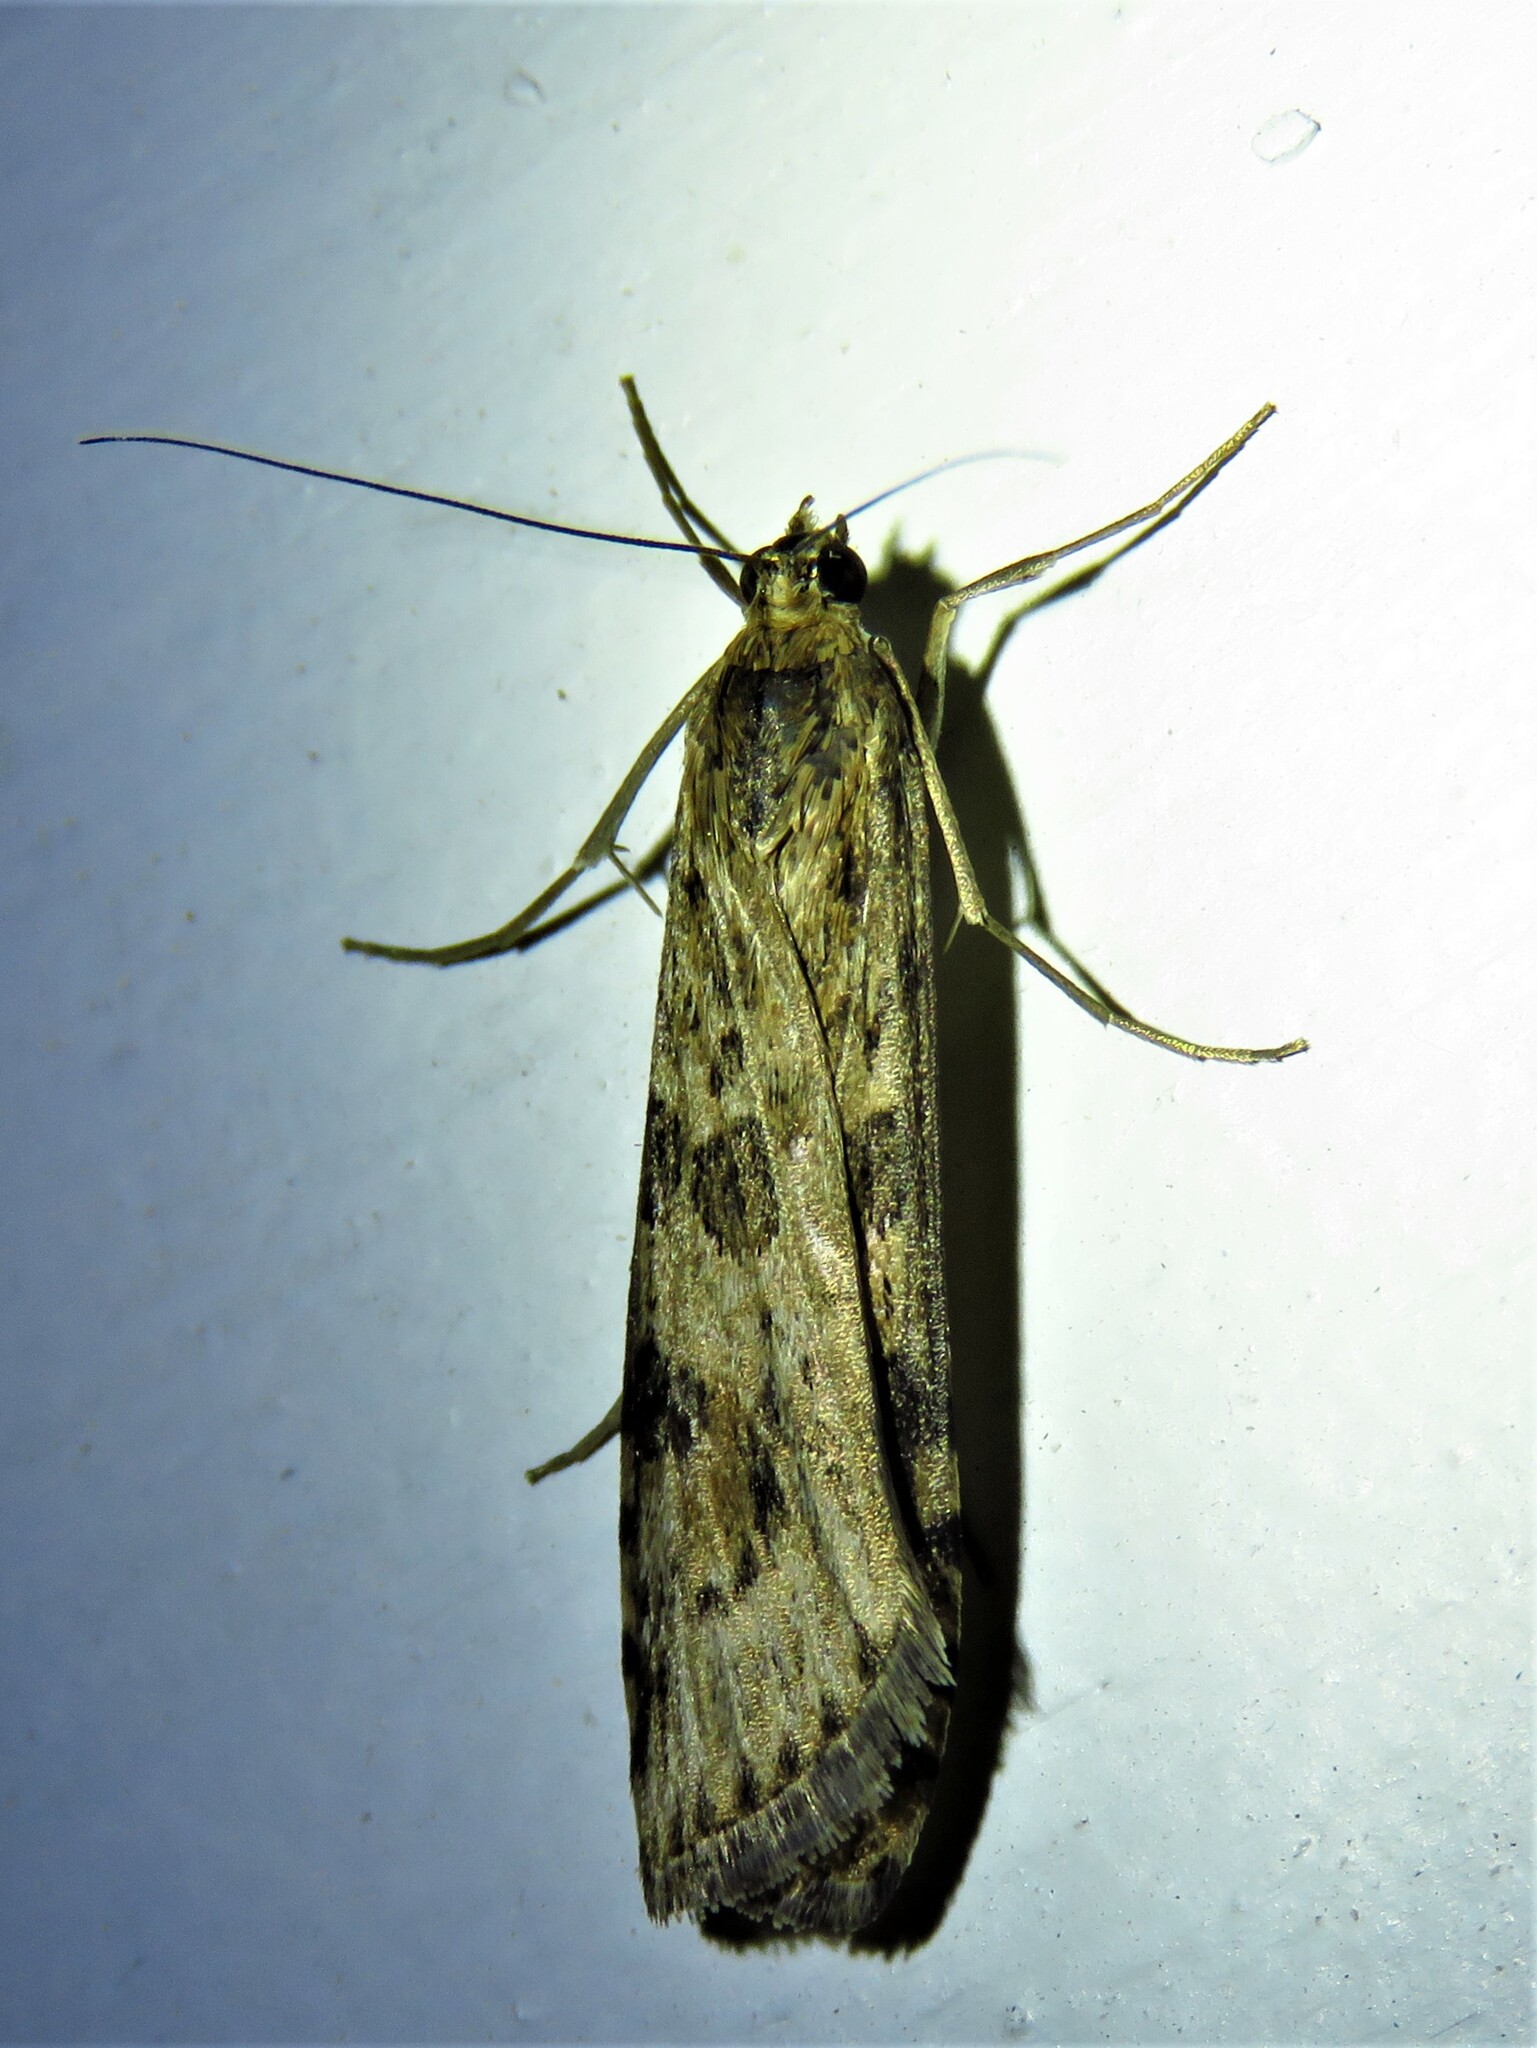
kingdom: Animalia
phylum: Arthropoda
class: Insecta
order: Lepidoptera
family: Crambidae
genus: Nomophila
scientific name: Nomophila nearctica
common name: American rush veneer
